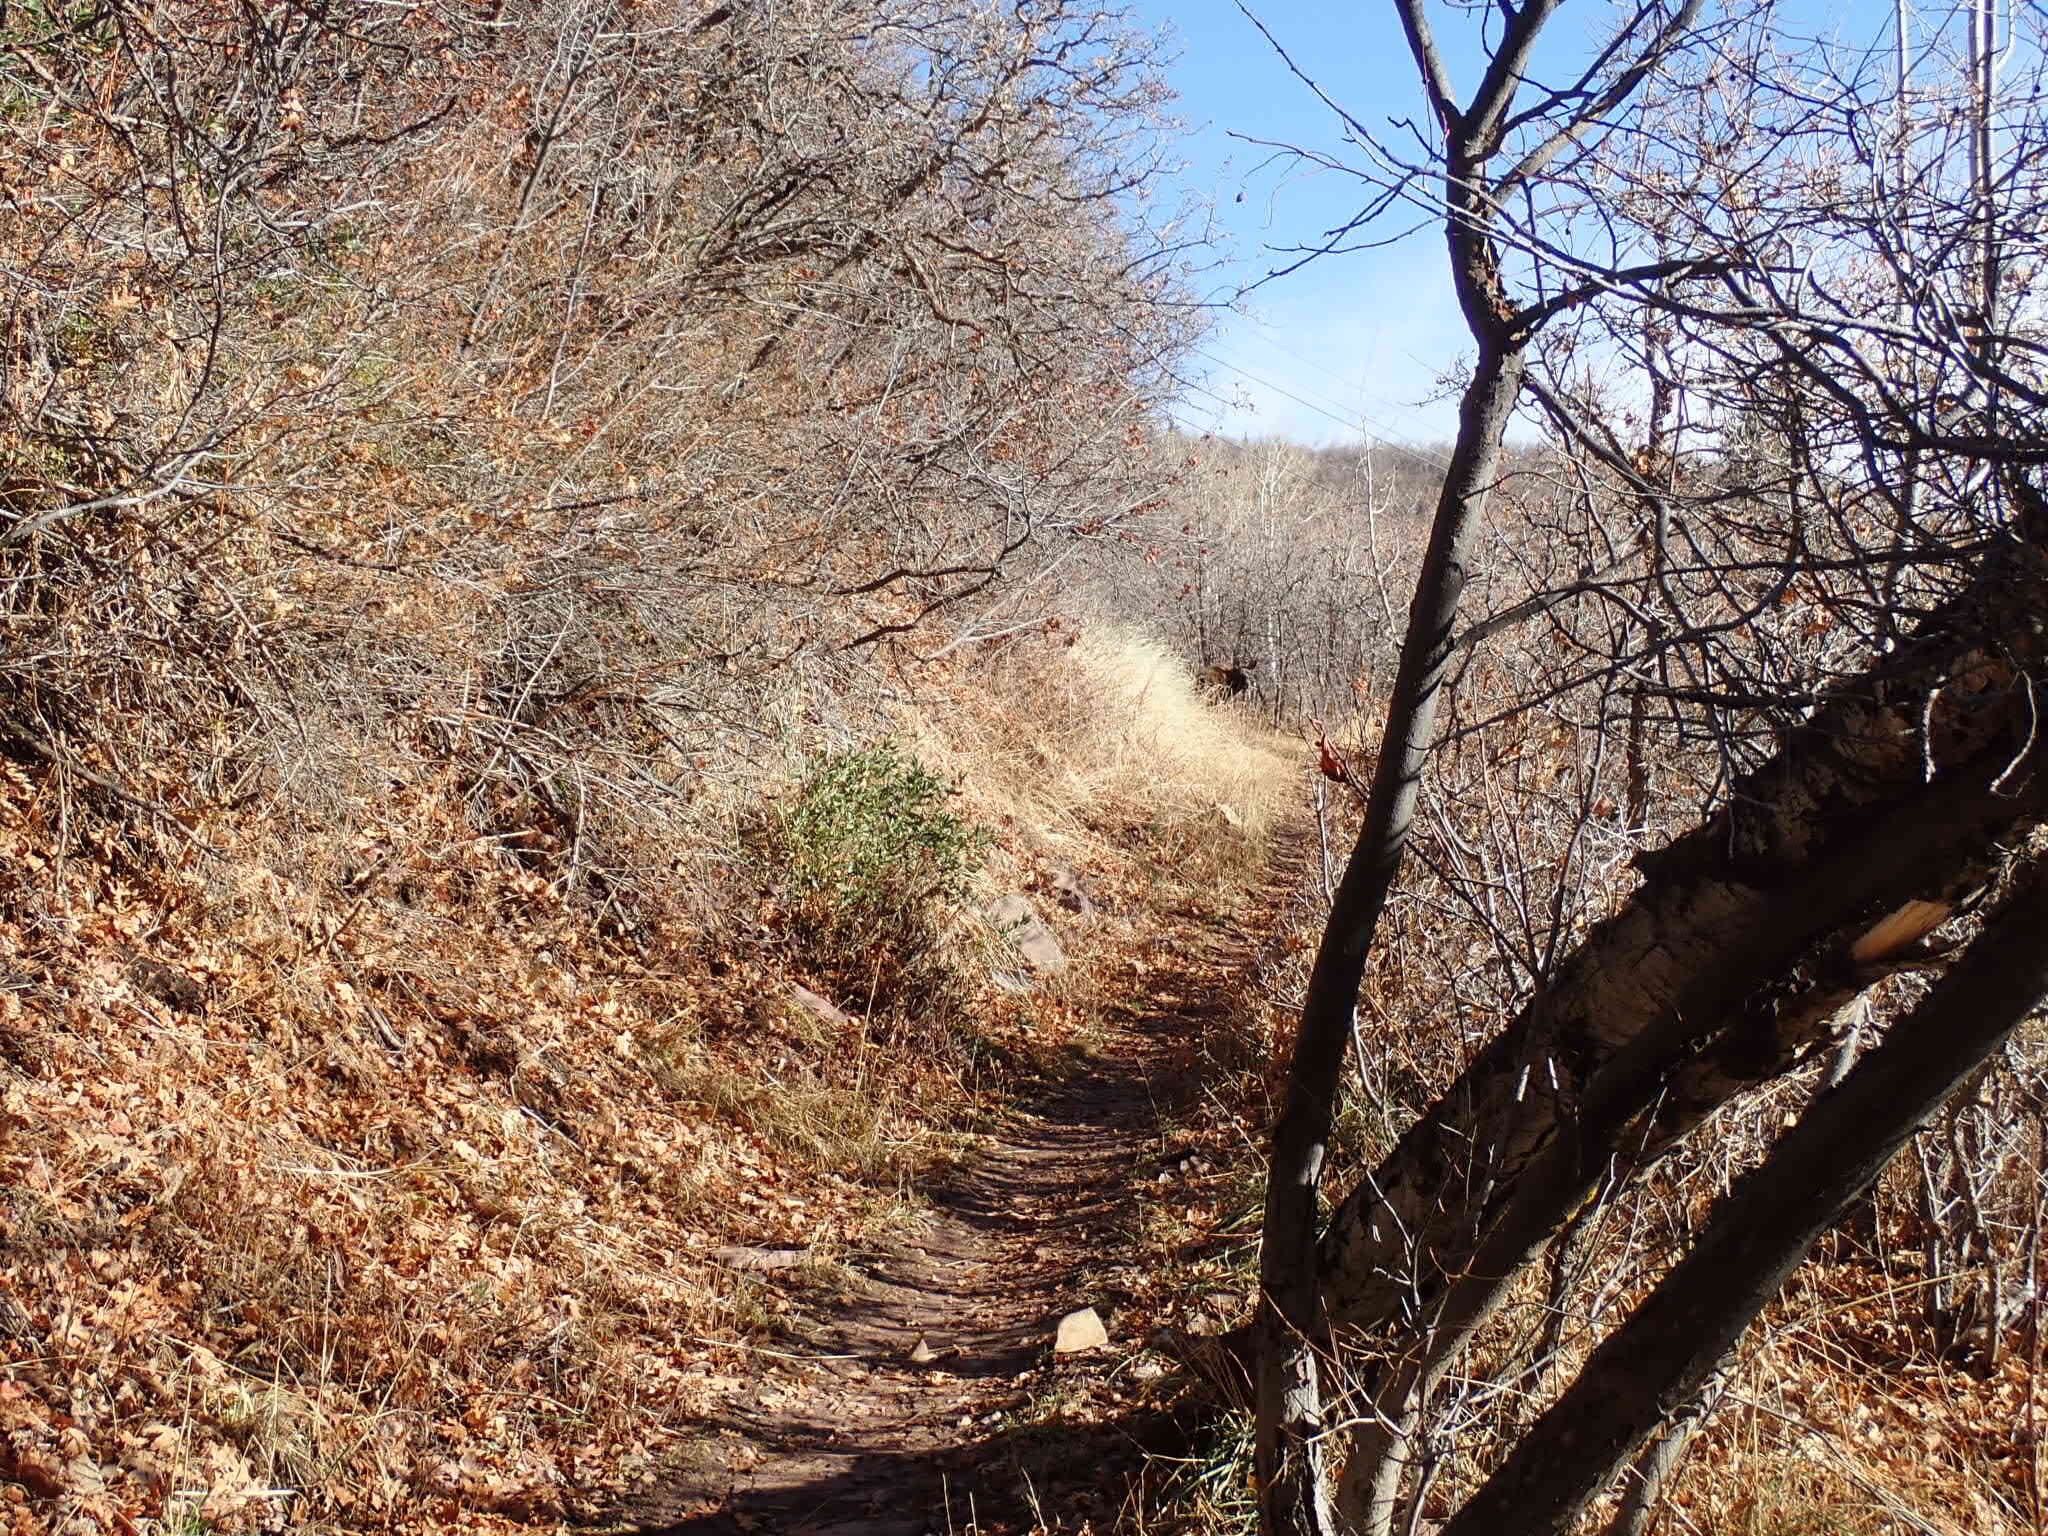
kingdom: Animalia
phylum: Chordata
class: Mammalia
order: Artiodactyla
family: Cervidae
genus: Alces
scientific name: Alces alces
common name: Moose
